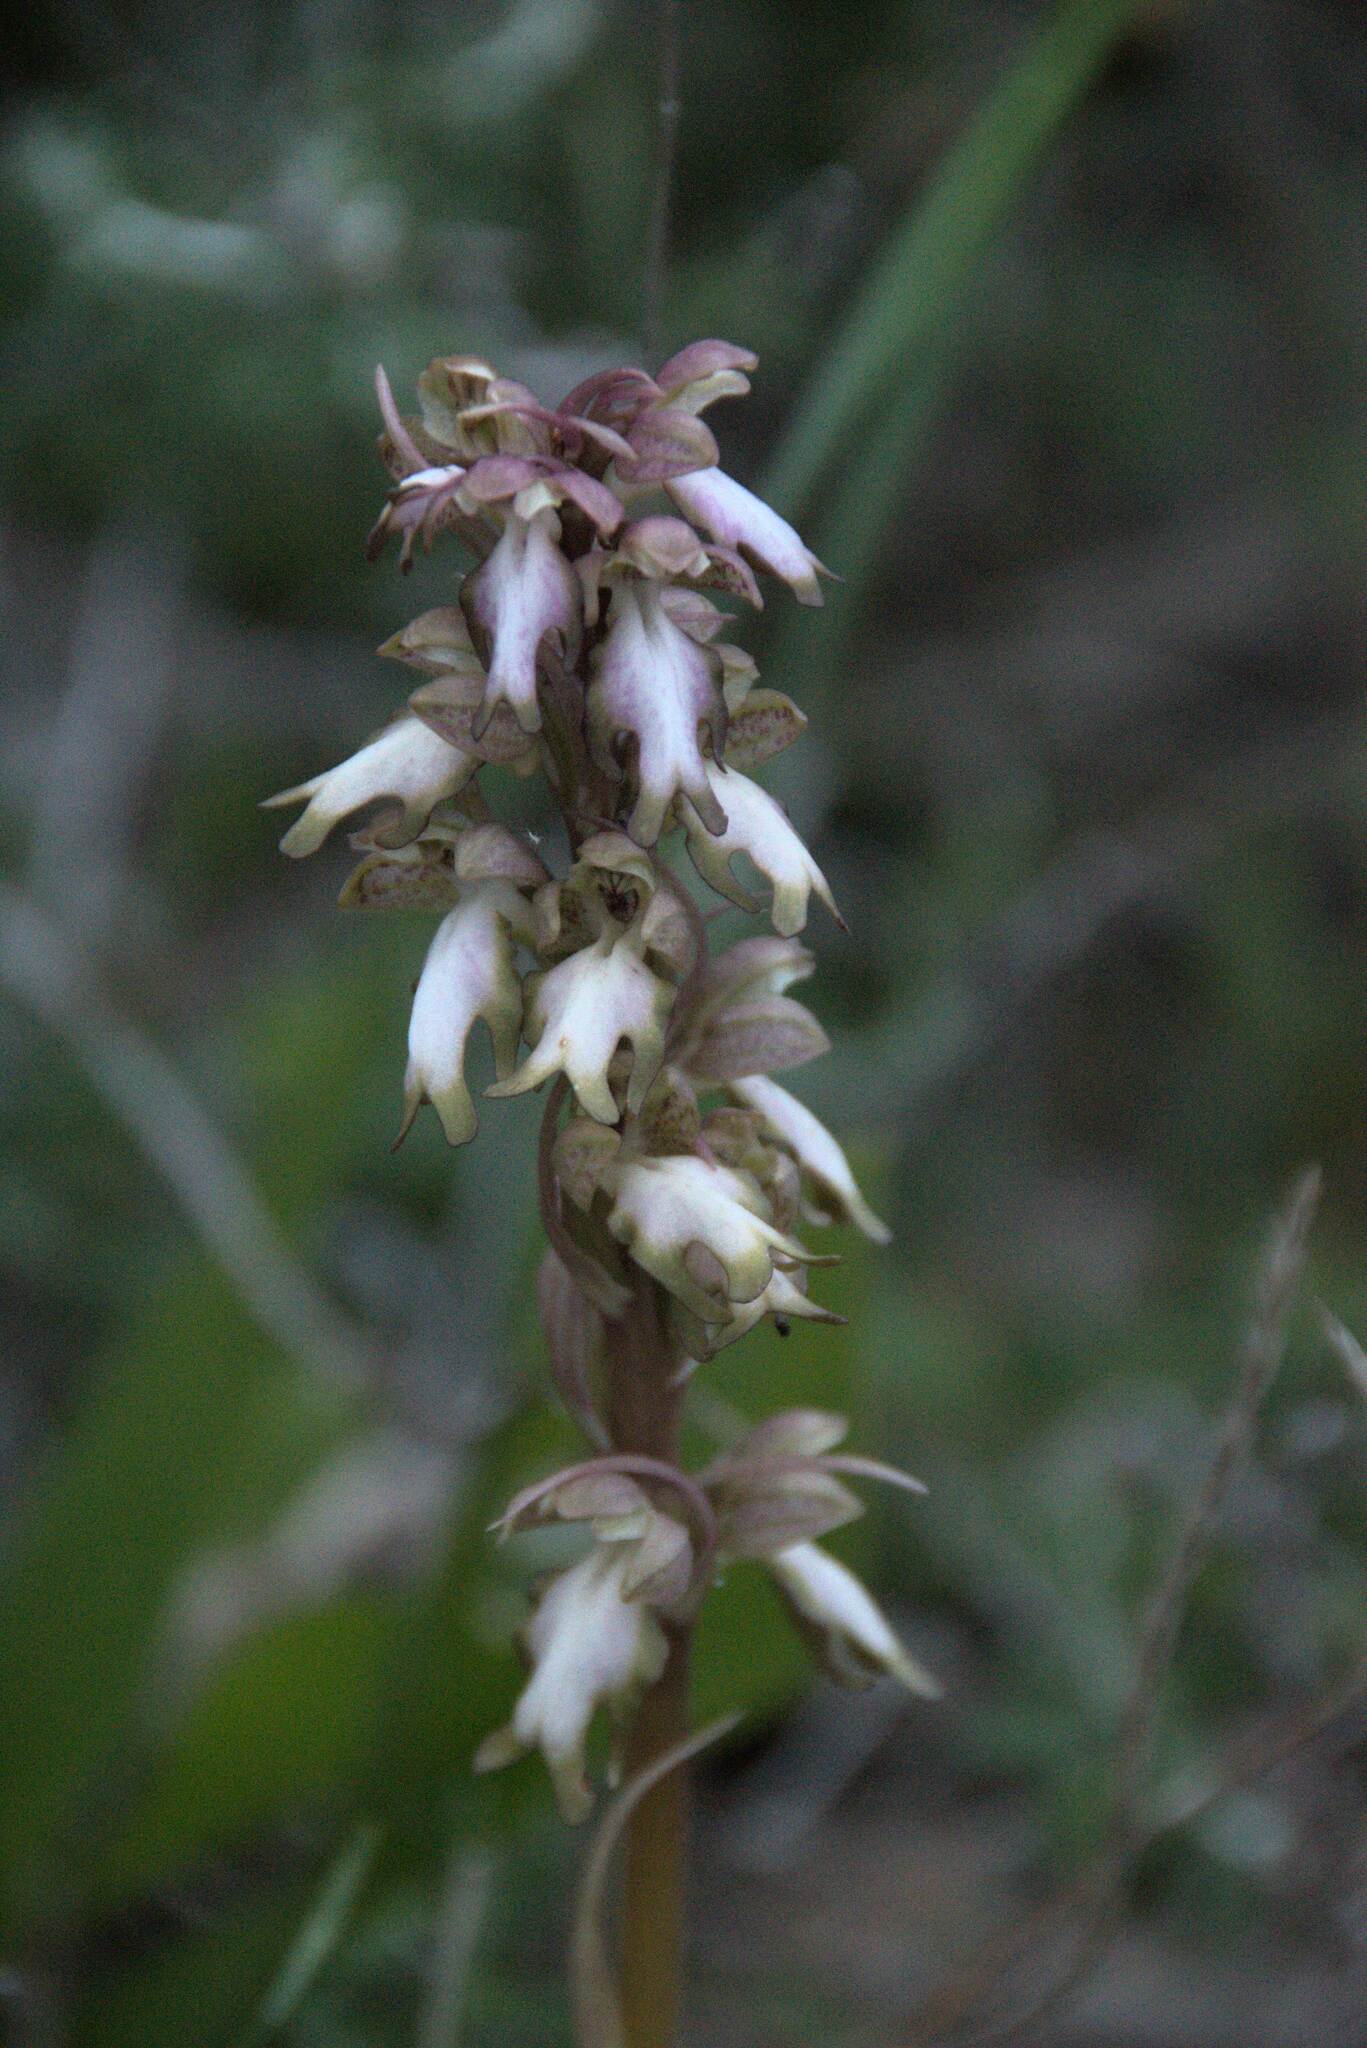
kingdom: Plantae
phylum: Tracheophyta
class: Liliopsida
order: Asparagales
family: Orchidaceae
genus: Himantoglossum
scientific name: Himantoglossum robertianum
